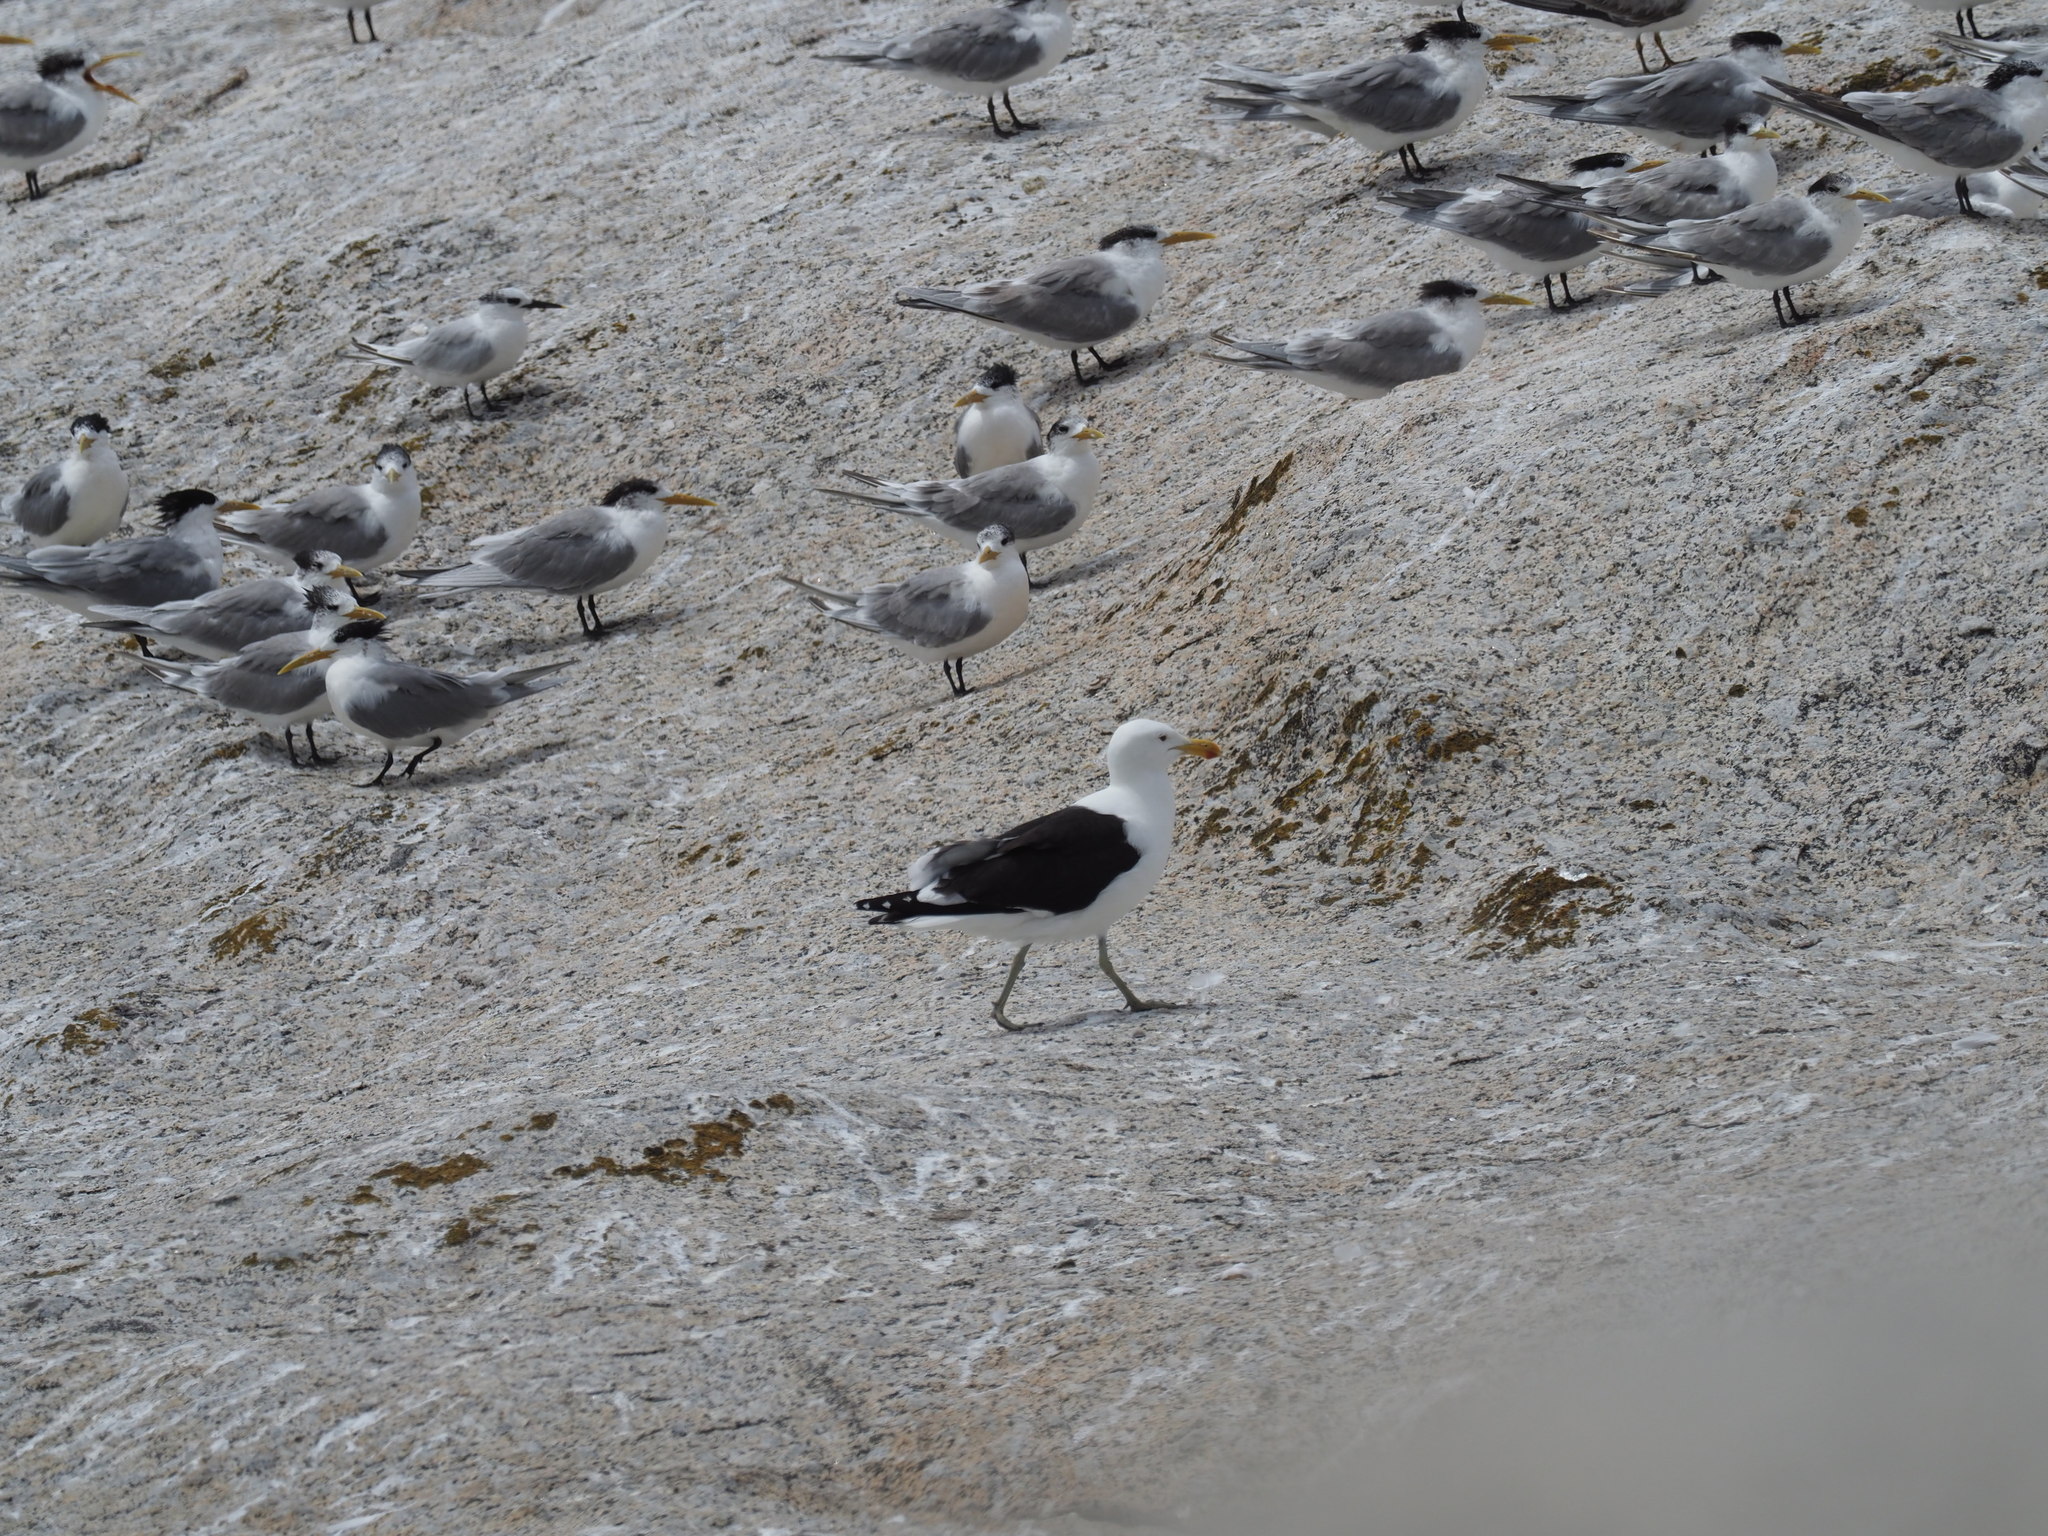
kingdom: Animalia
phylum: Chordata
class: Aves
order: Charadriiformes
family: Laridae
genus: Larus
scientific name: Larus dominicanus
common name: Kelp gull
